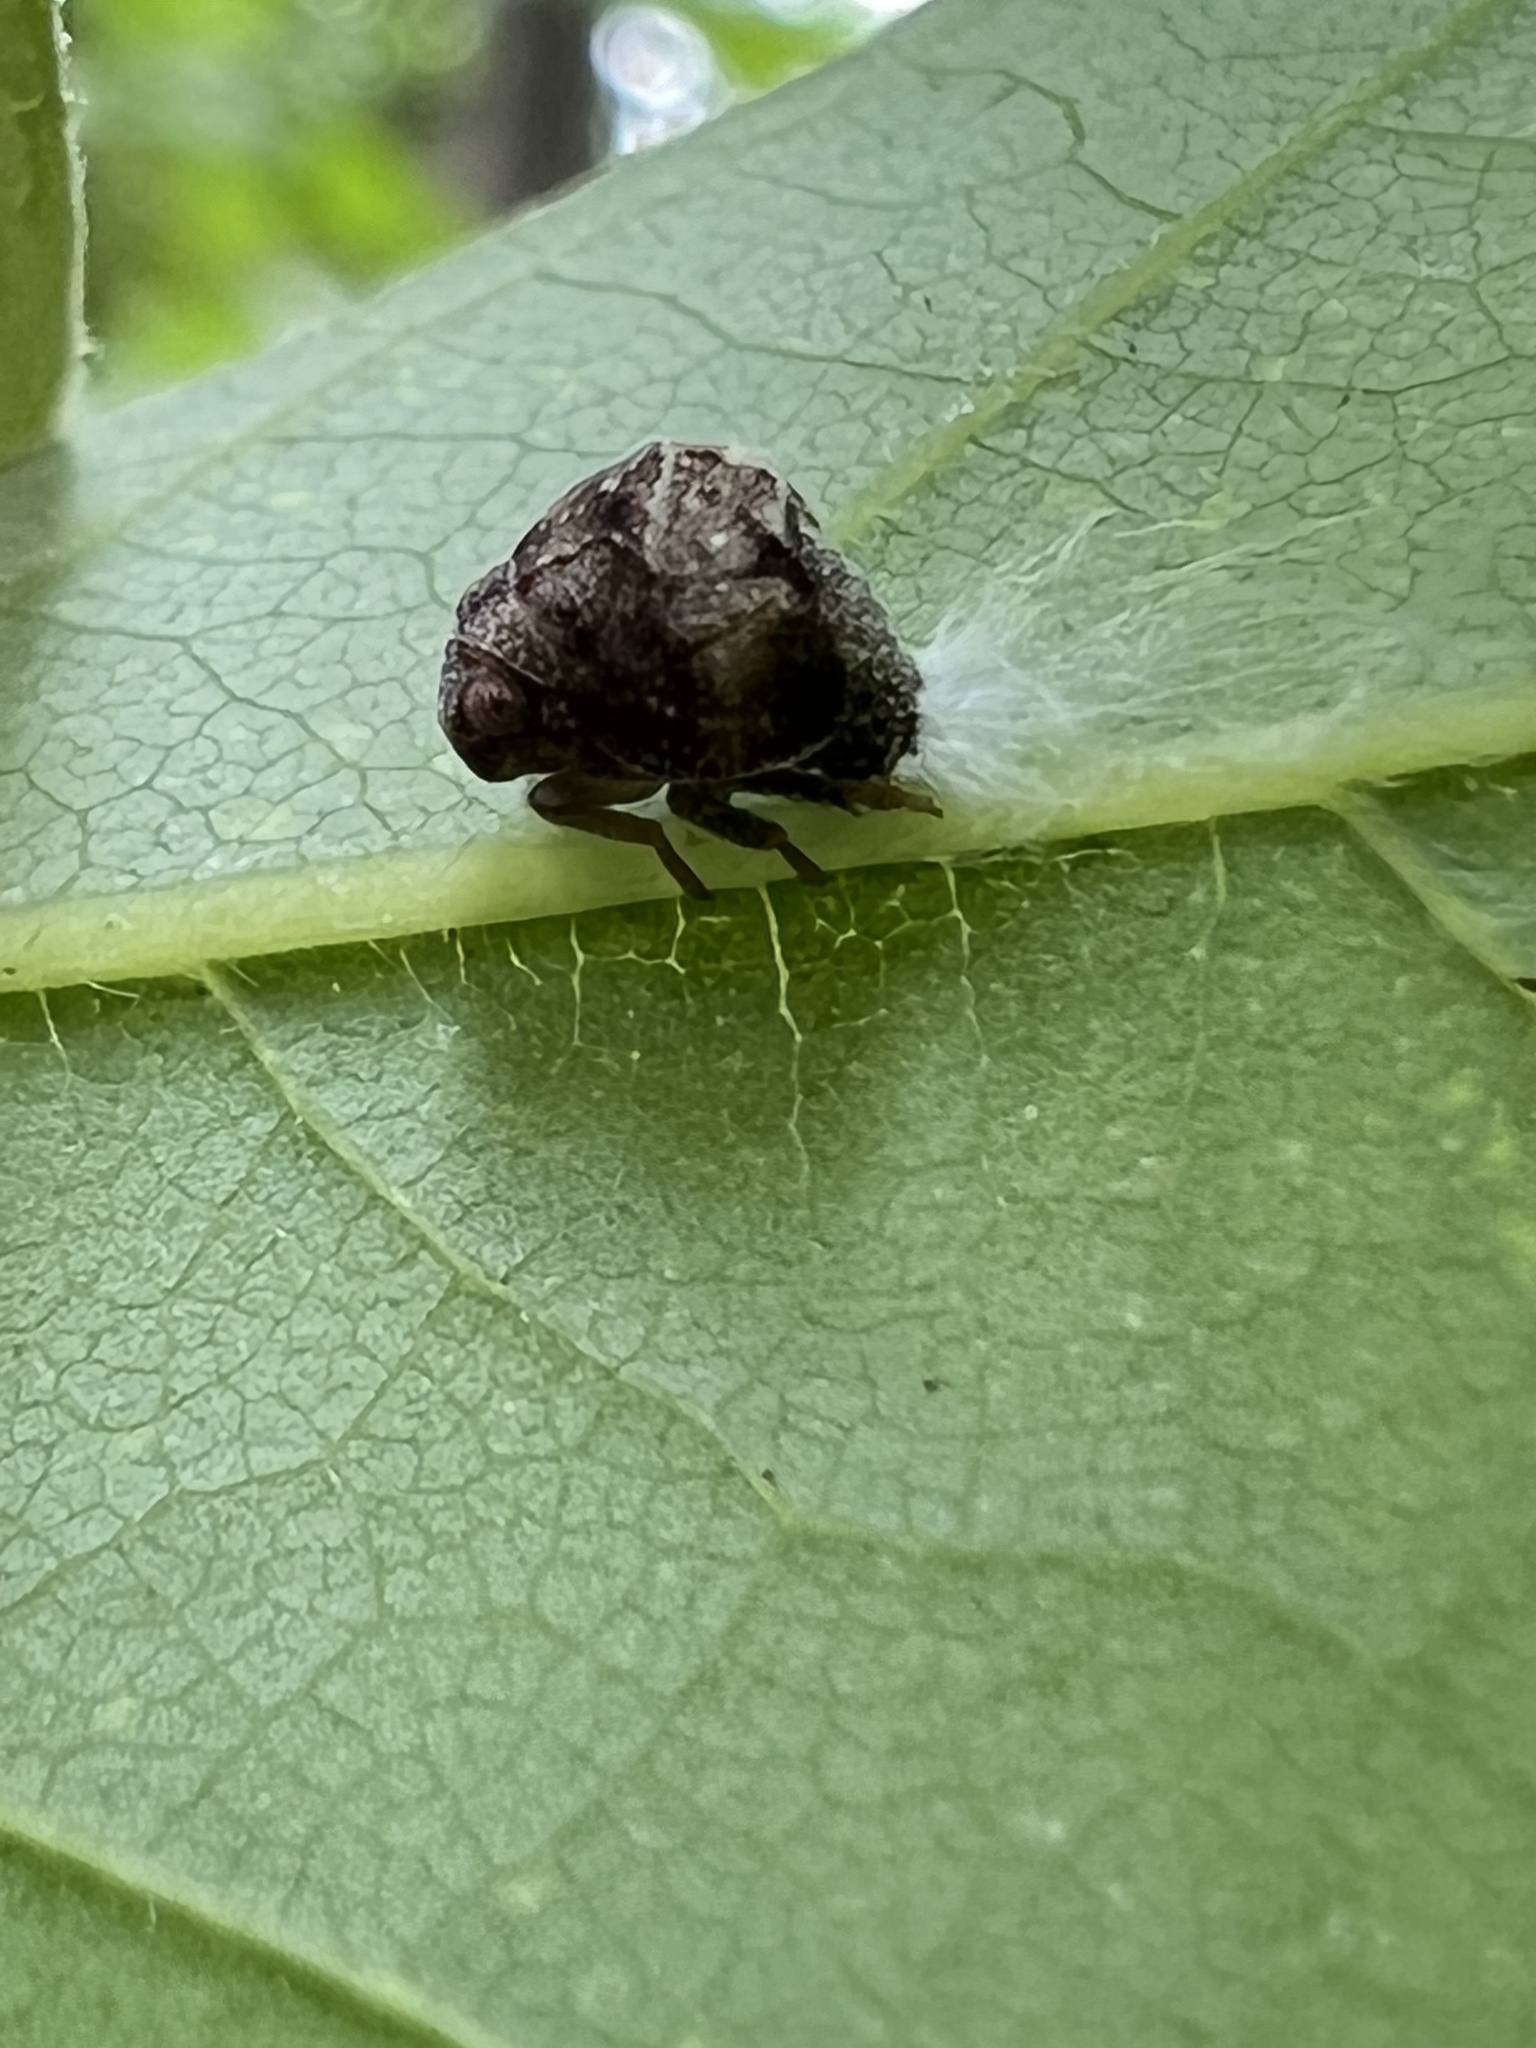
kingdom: Animalia
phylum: Arthropoda
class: Insecta
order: Hemiptera
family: Acanaloniidae
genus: Acanalonia
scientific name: Acanalonia bivittata
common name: Two-striped planthopper
